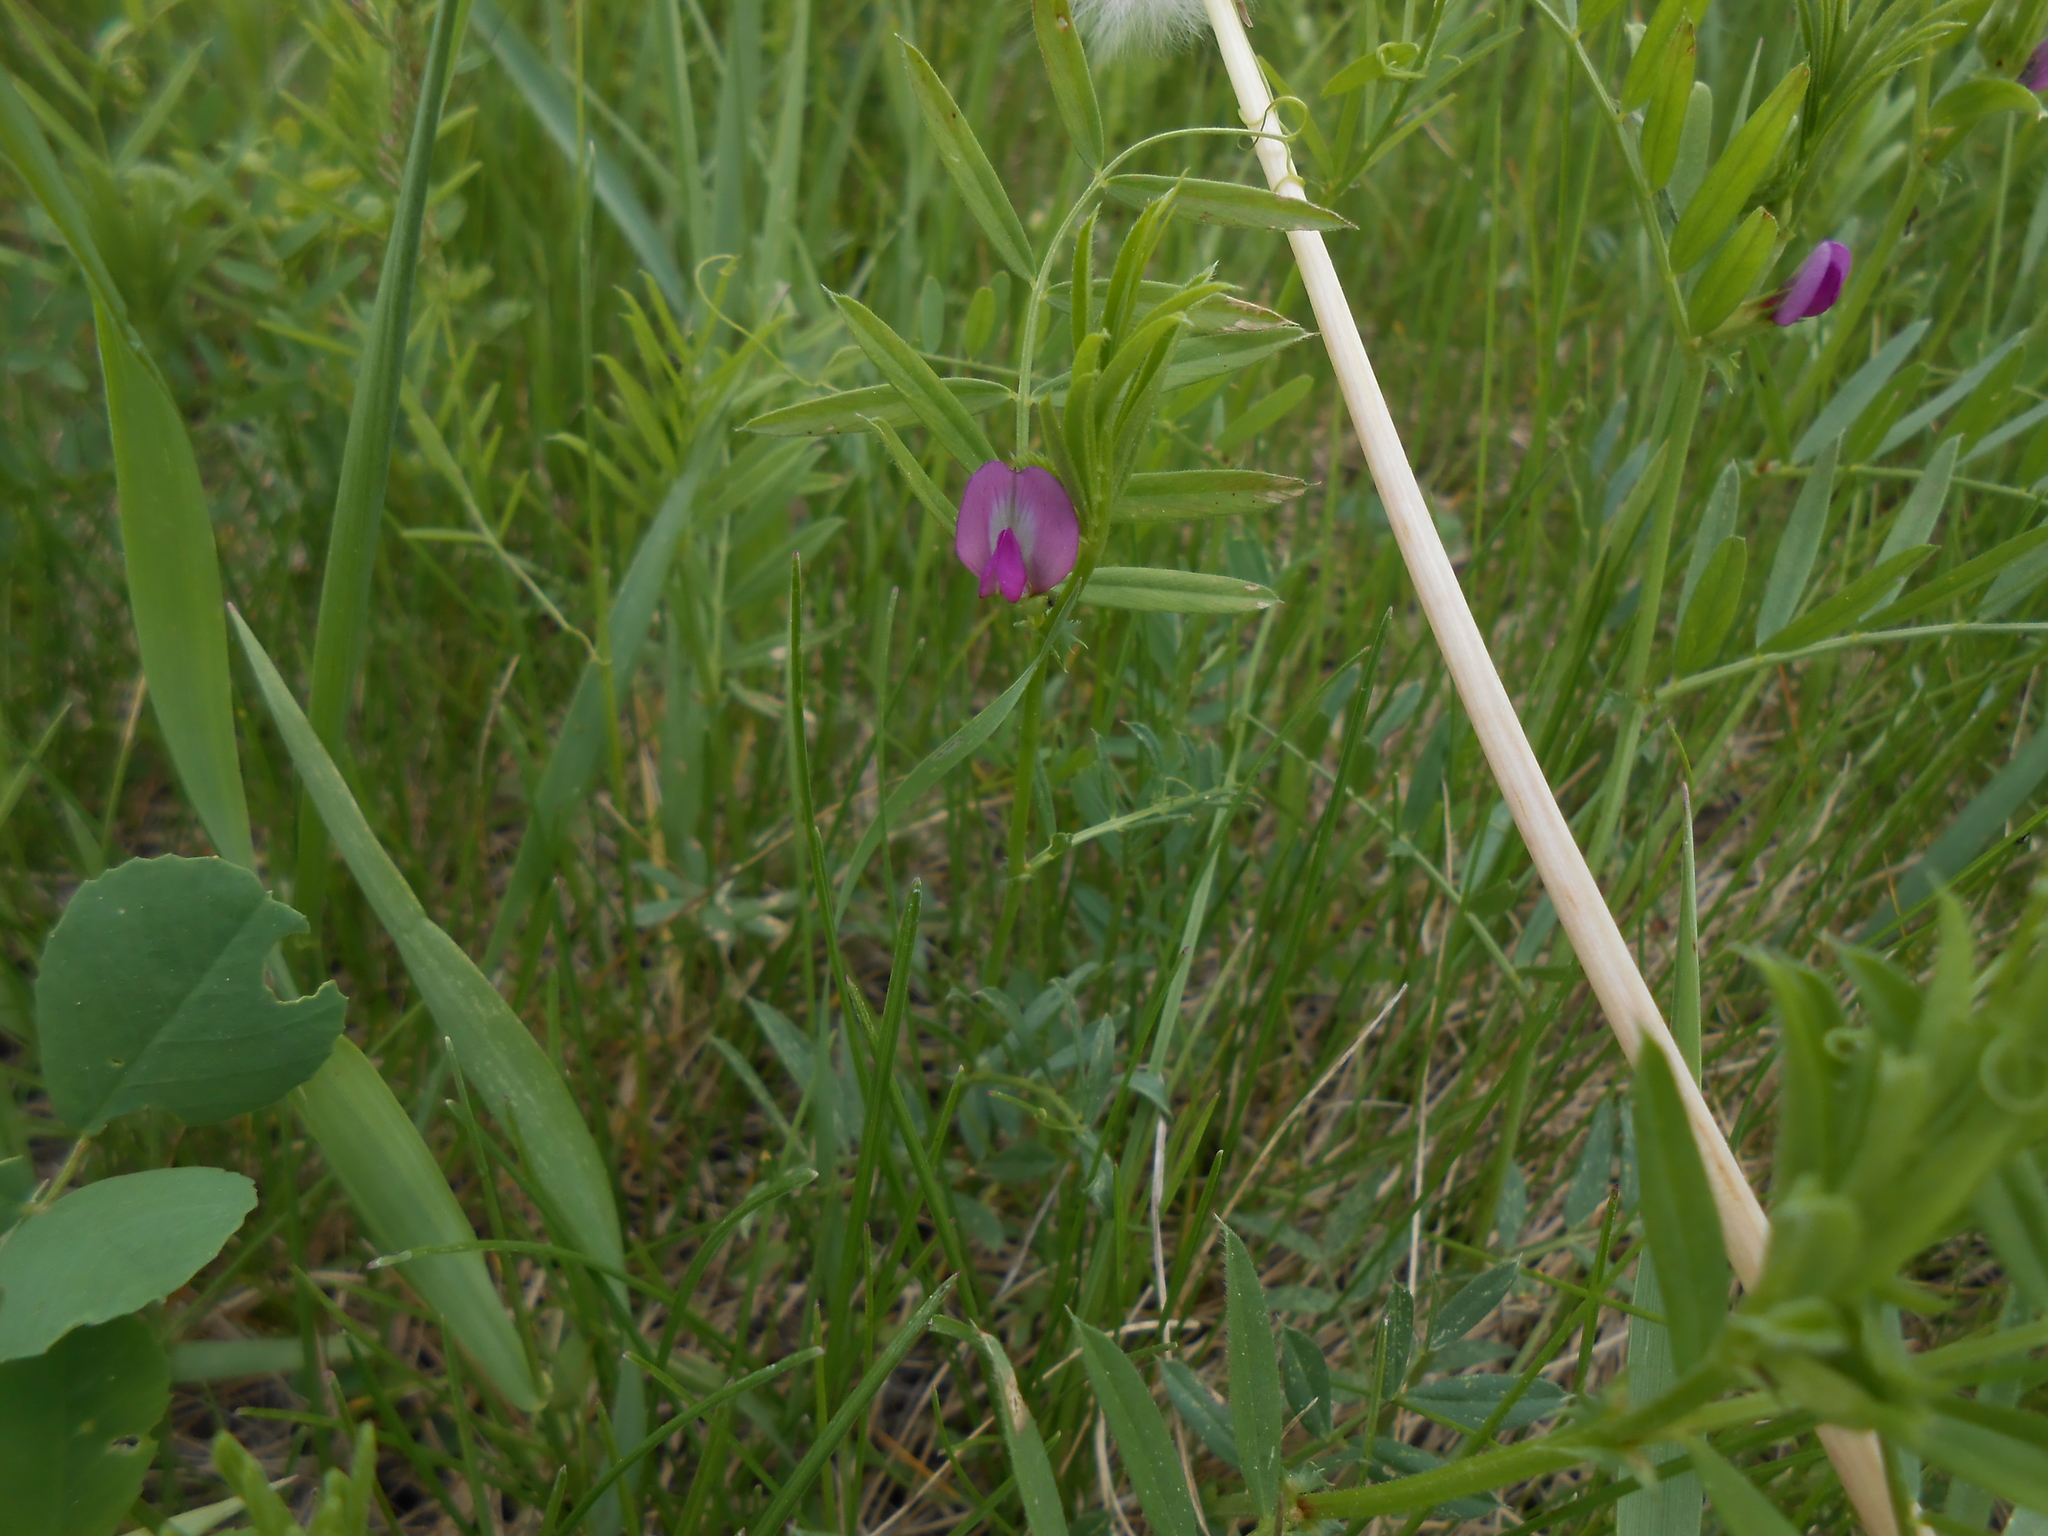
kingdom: Plantae
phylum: Tracheophyta
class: Magnoliopsida
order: Fabales
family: Fabaceae
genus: Vicia
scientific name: Vicia sativa
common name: Garden vetch
